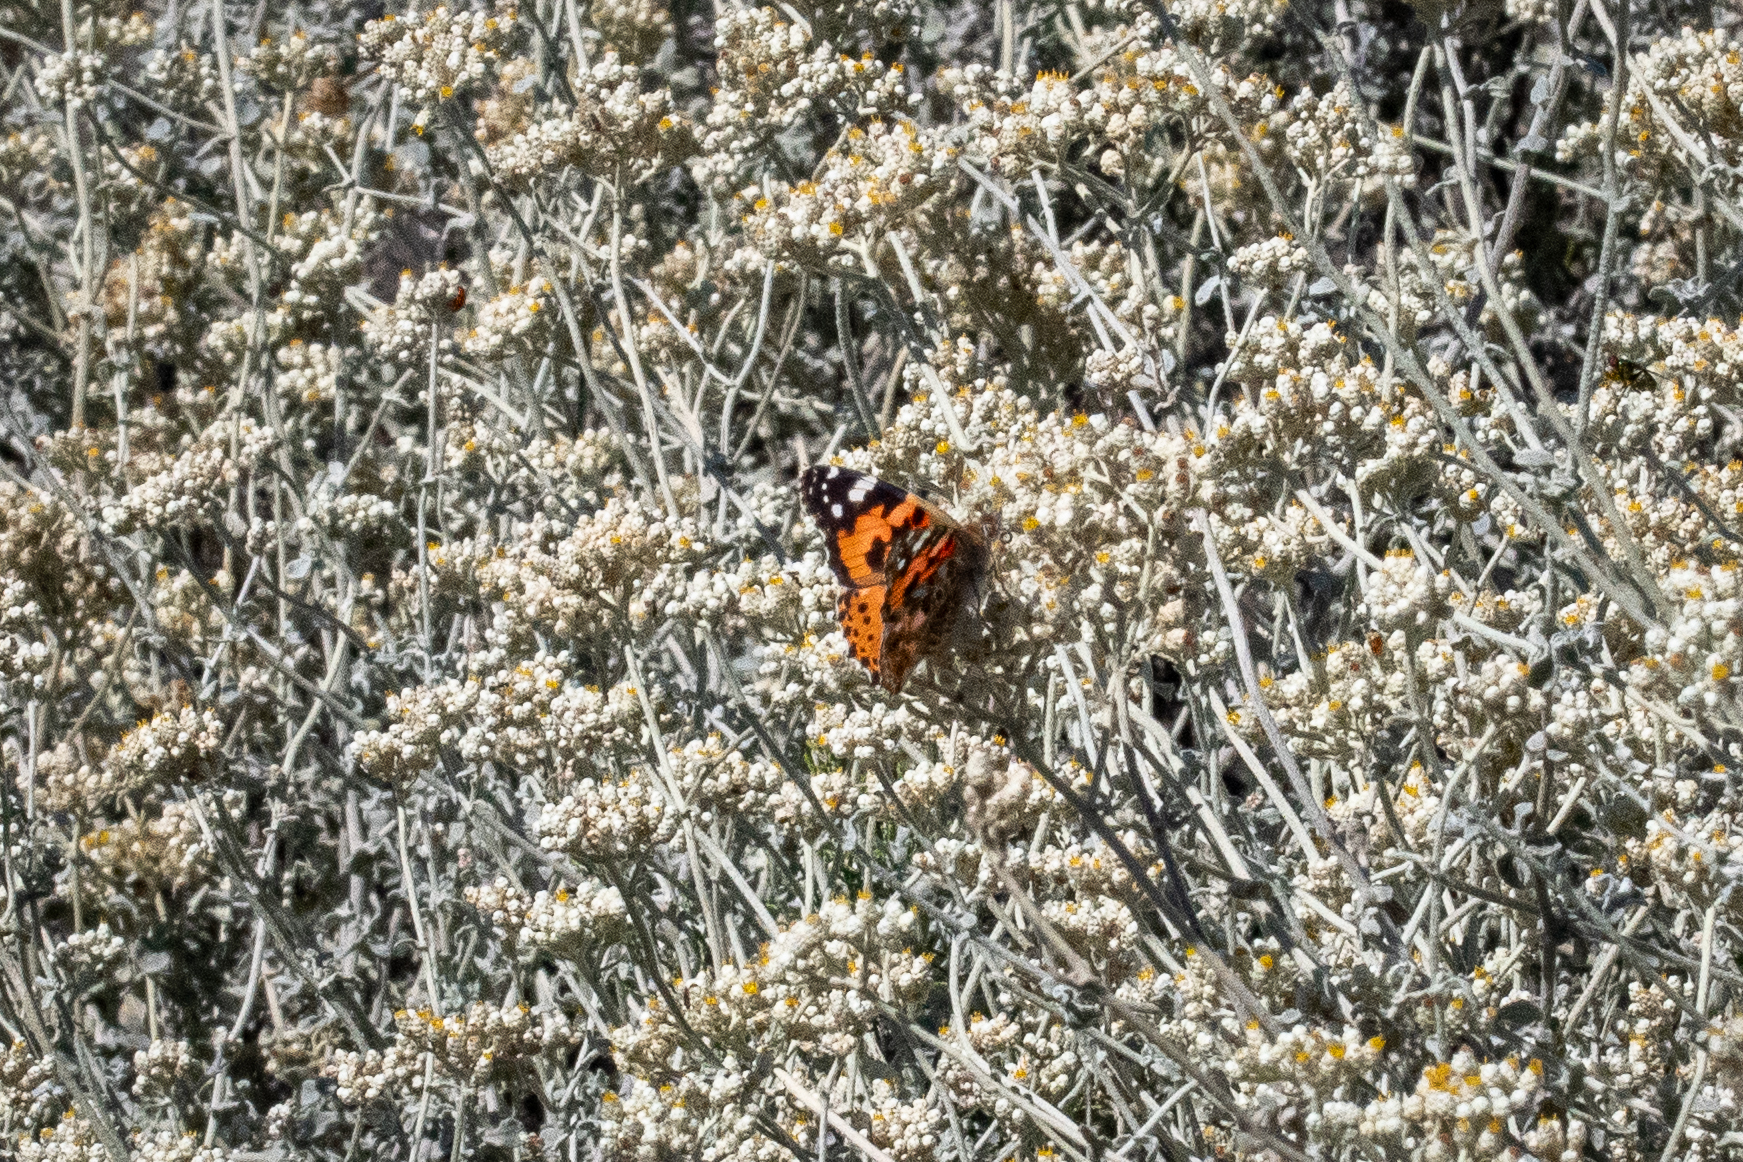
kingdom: Animalia
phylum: Arthropoda
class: Insecta
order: Lepidoptera
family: Nymphalidae
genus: Vanessa
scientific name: Vanessa cardui
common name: Painted lady
